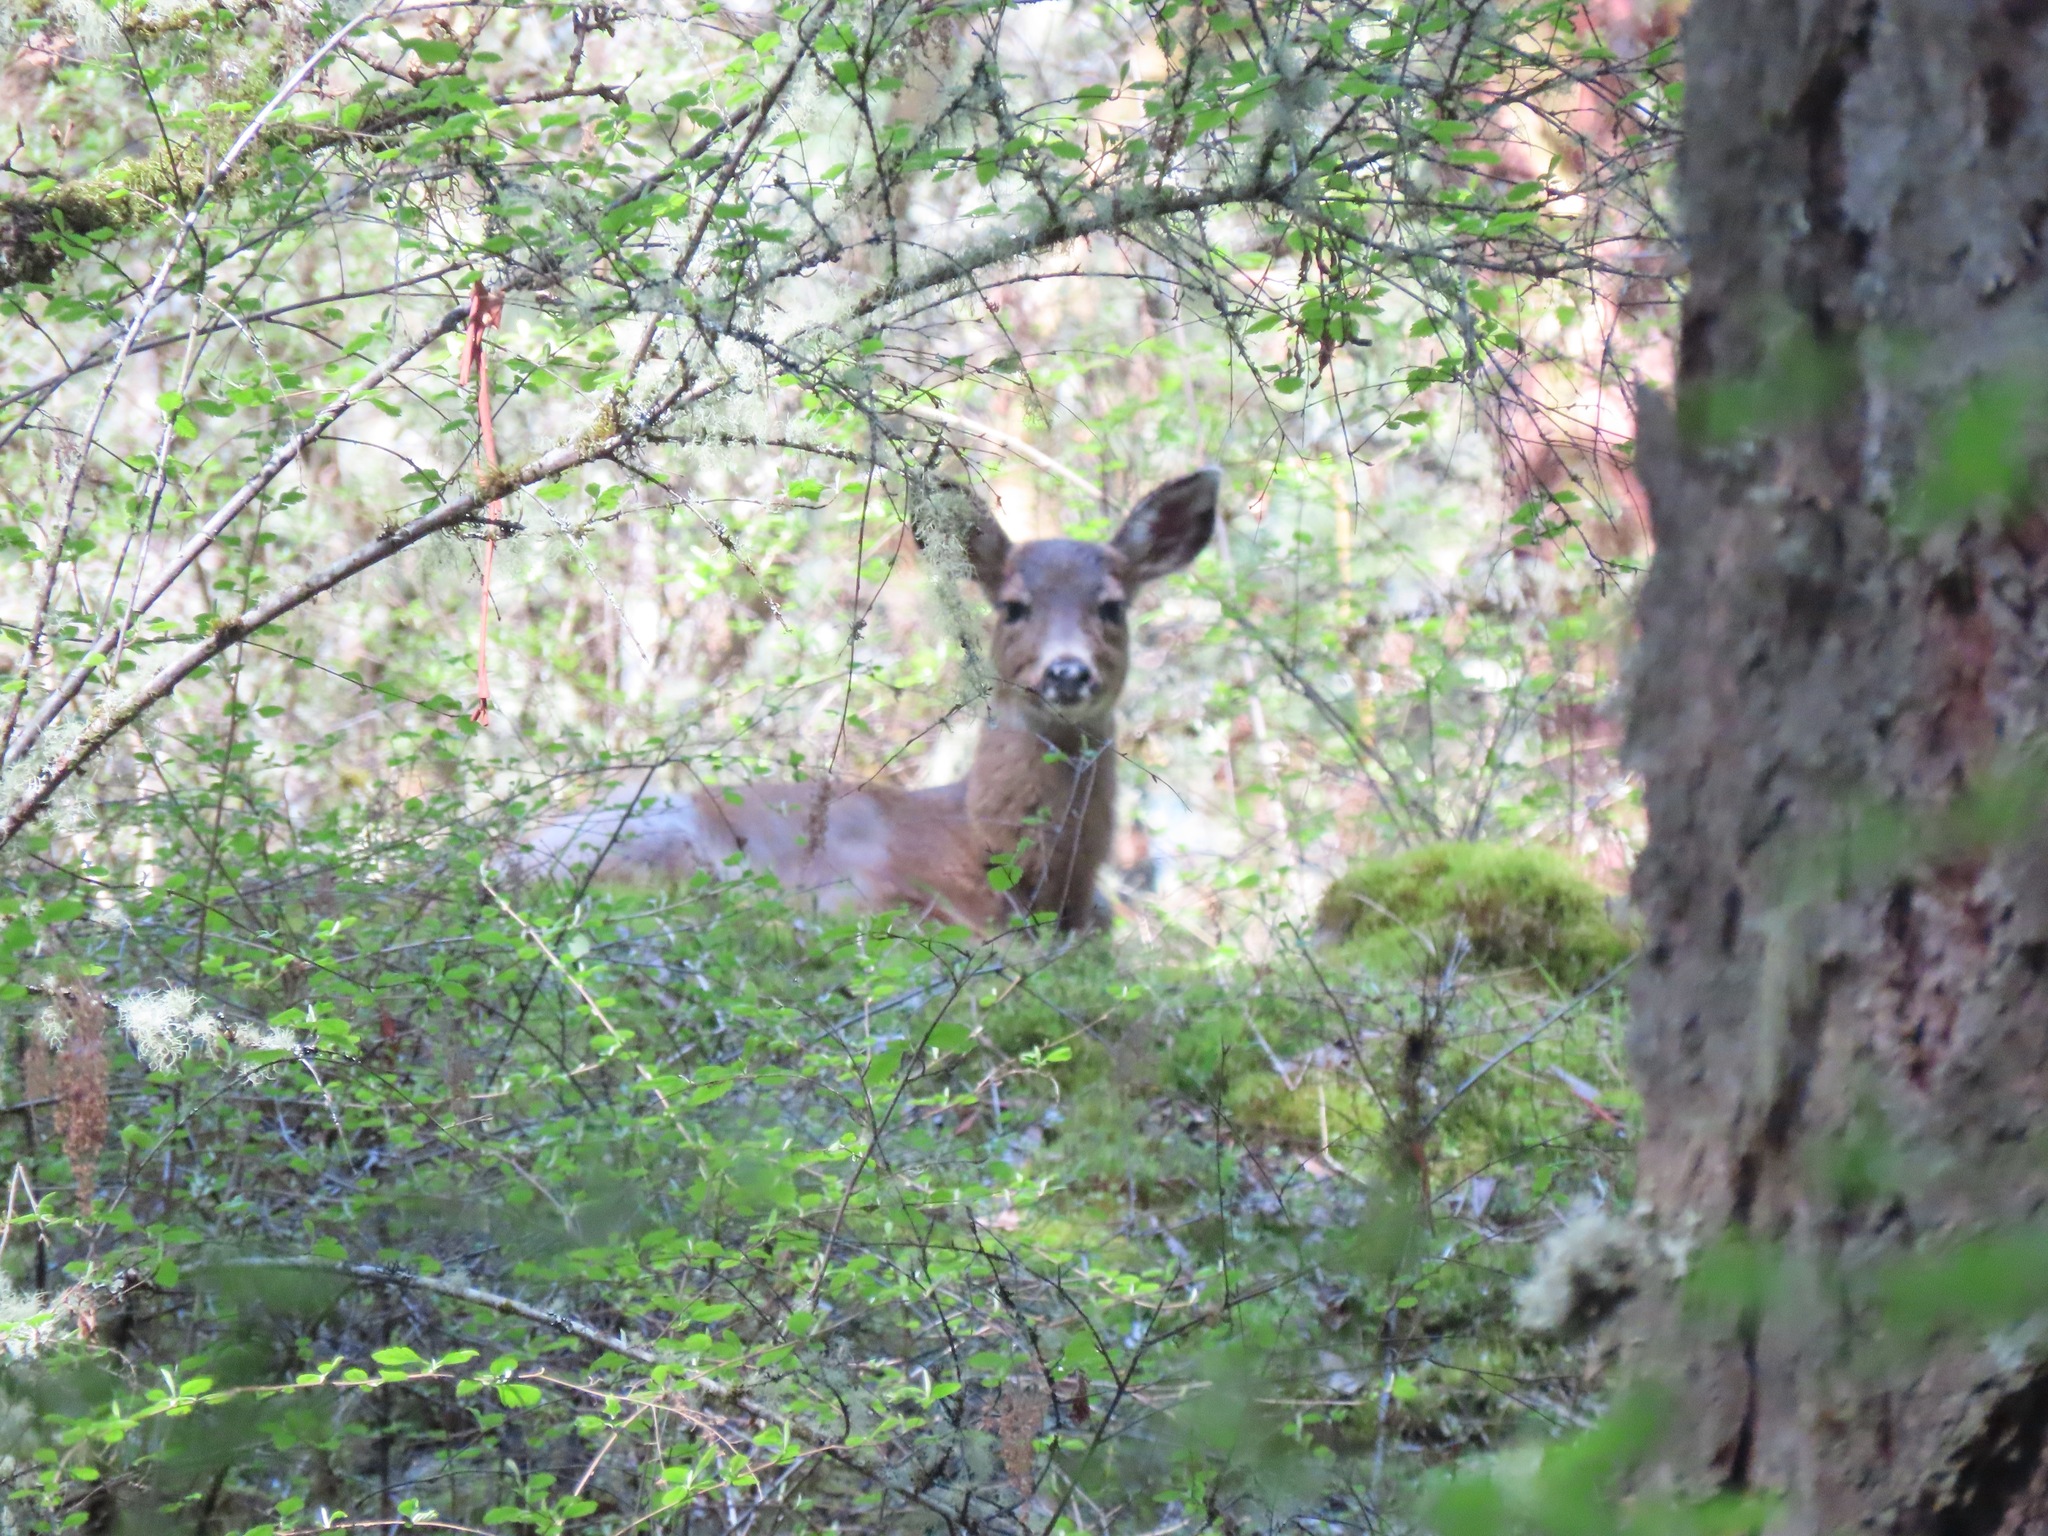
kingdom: Animalia
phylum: Chordata
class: Mammalia
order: Artiodactyla
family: Cervidae
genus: Odocoileus
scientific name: Odocoileus hemionus
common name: Mule deer
